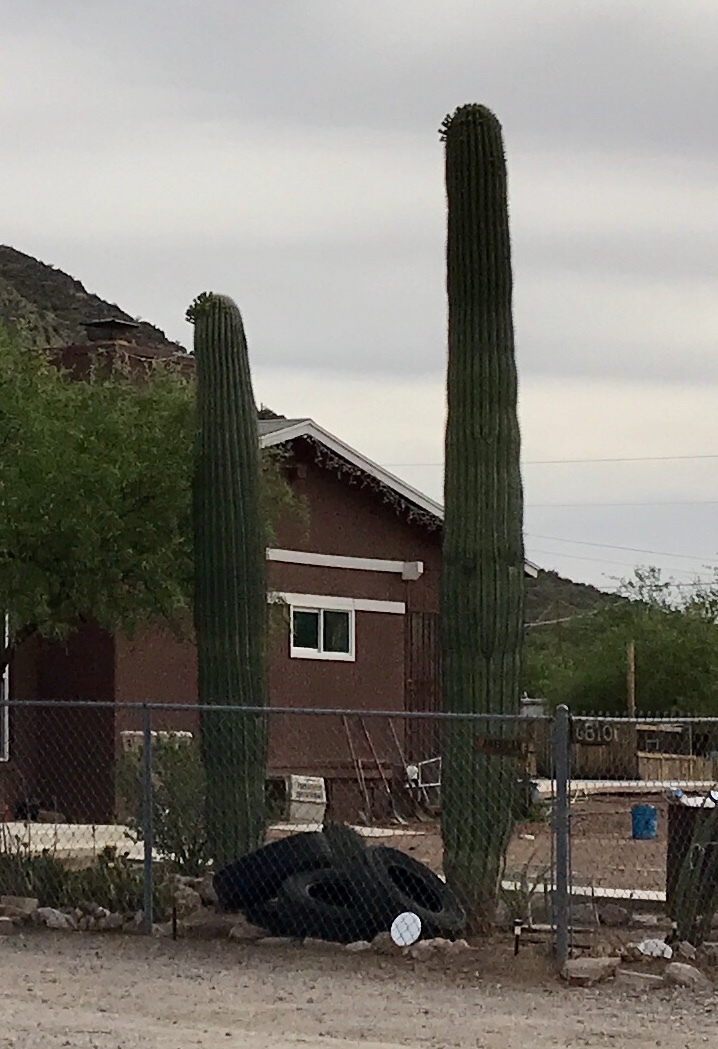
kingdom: Plantae
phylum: Tracheophyta
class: Magnoliopsida
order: Caryophyllales
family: Cactaceae
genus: Carnegiea
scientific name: Carnegiea gigantea
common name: Saguaro
